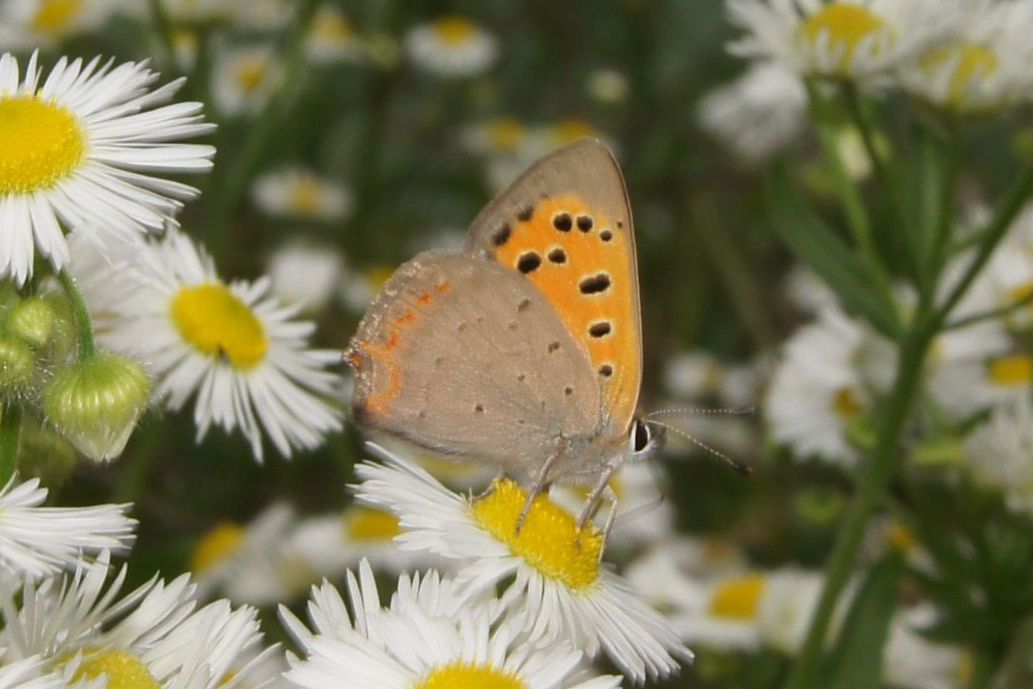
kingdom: Animalia
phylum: Arthropoda
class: Insecta
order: Lepidoptera
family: Lycaenidae
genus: Lycaena
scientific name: Lycaena phlaeas
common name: Small copper
